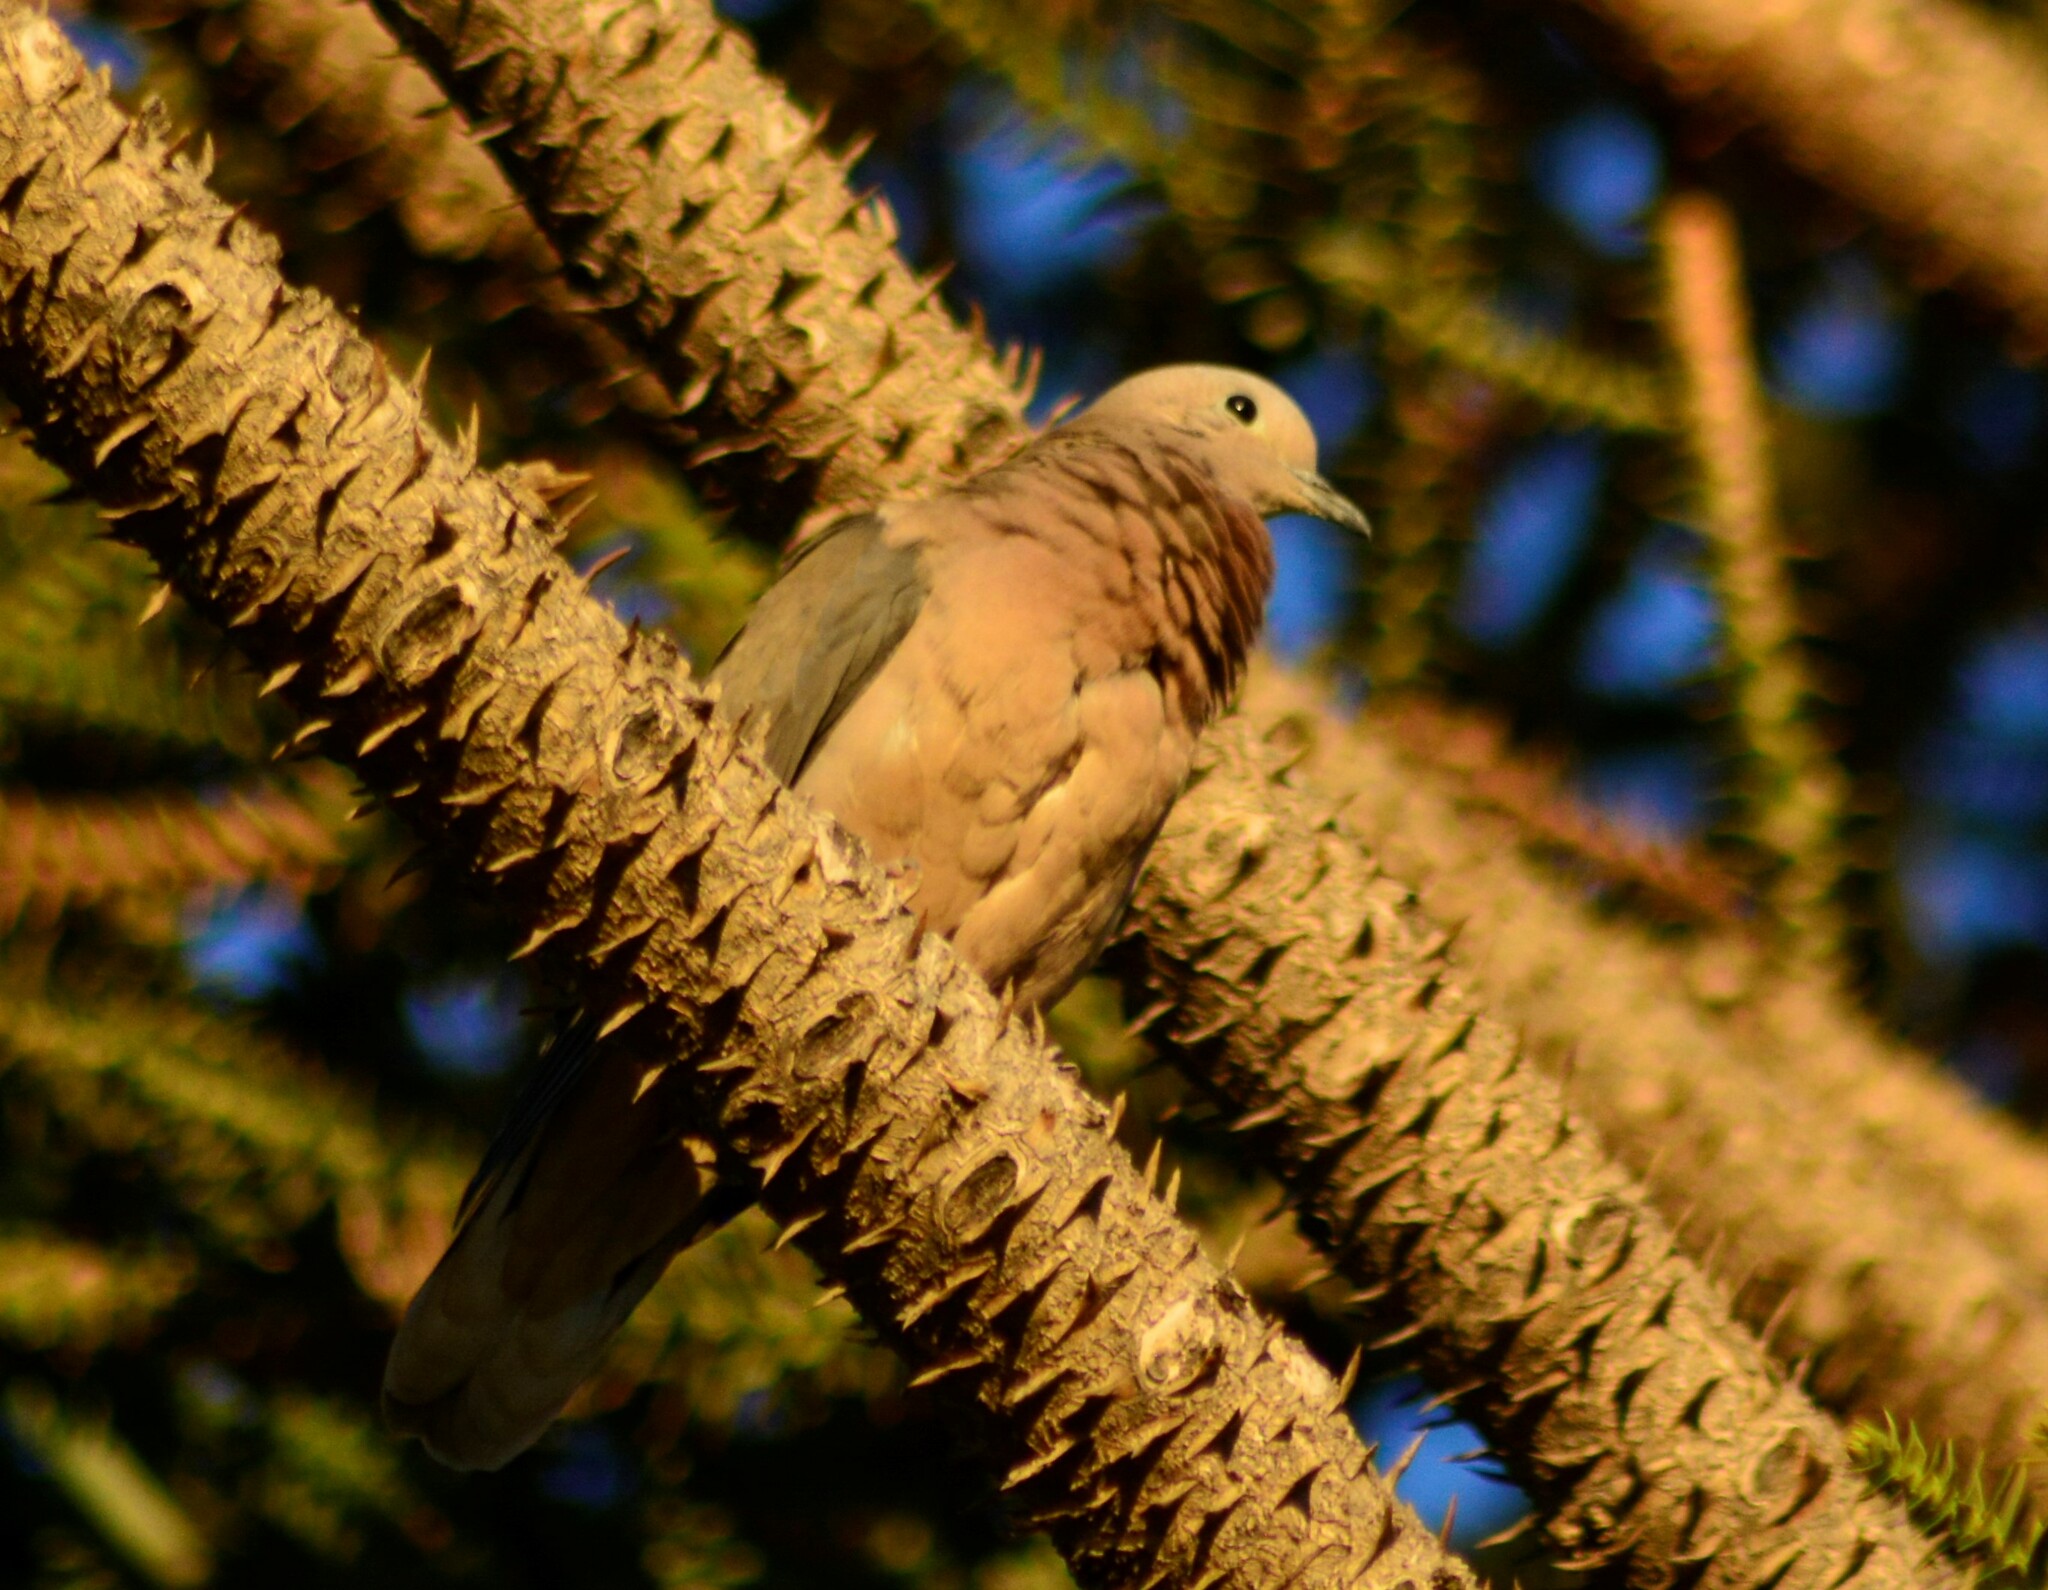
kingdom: Animalia
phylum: Chordata
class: Aves
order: Columbiformes
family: Columbidae
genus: Zenaida
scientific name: Zenaida auriculata
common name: Eared dove
